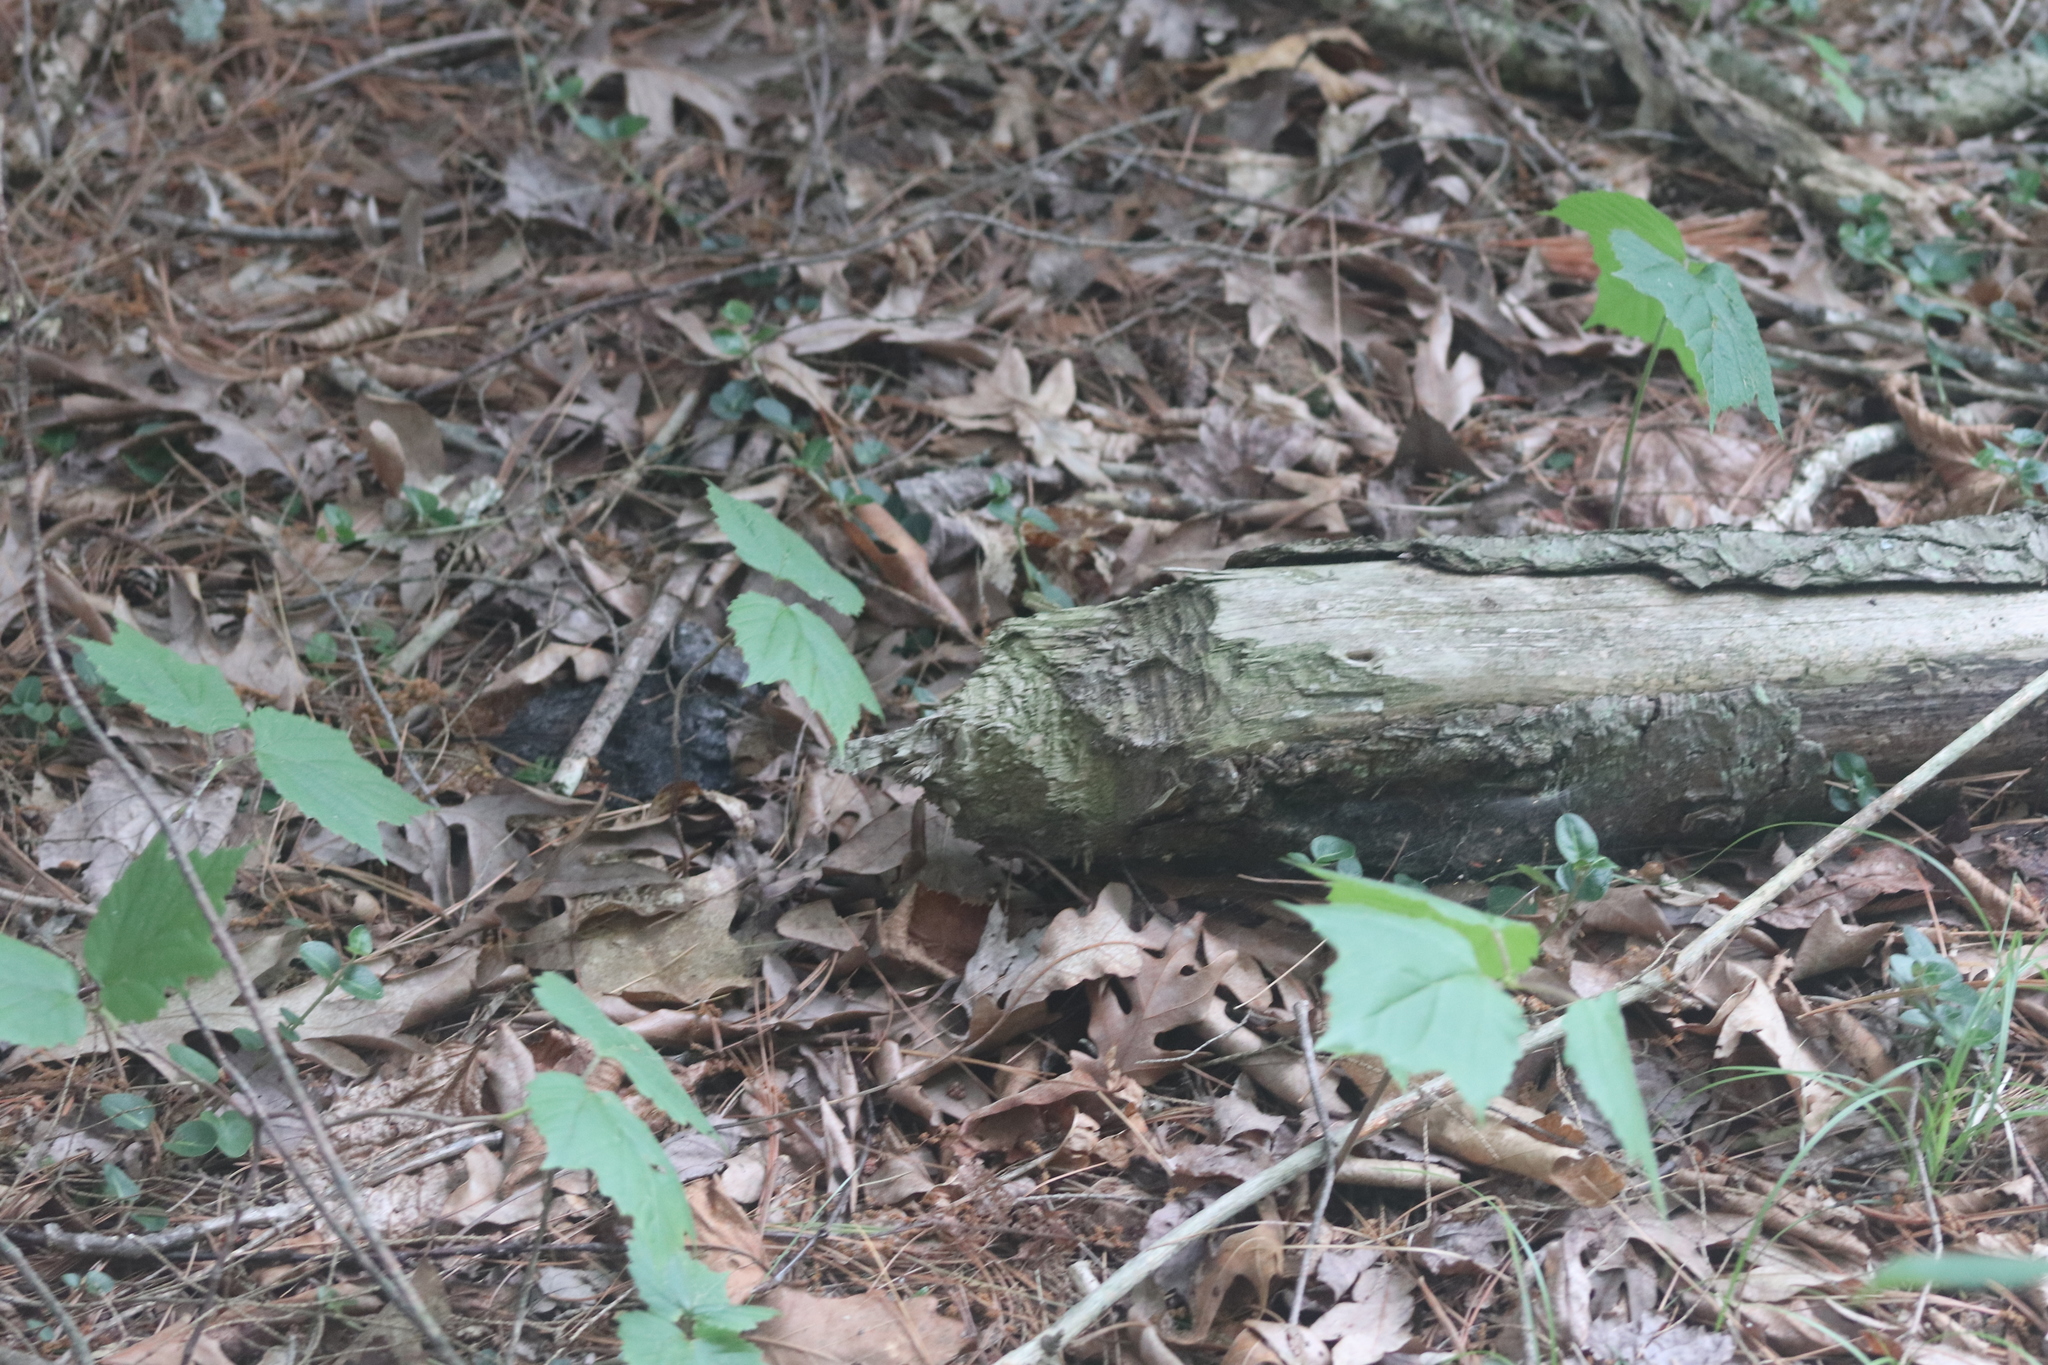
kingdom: Animalia
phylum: Chordata
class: Mammalia
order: Rodentia
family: Castoridae
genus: Castor
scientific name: Castor canadensis
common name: American beaver
